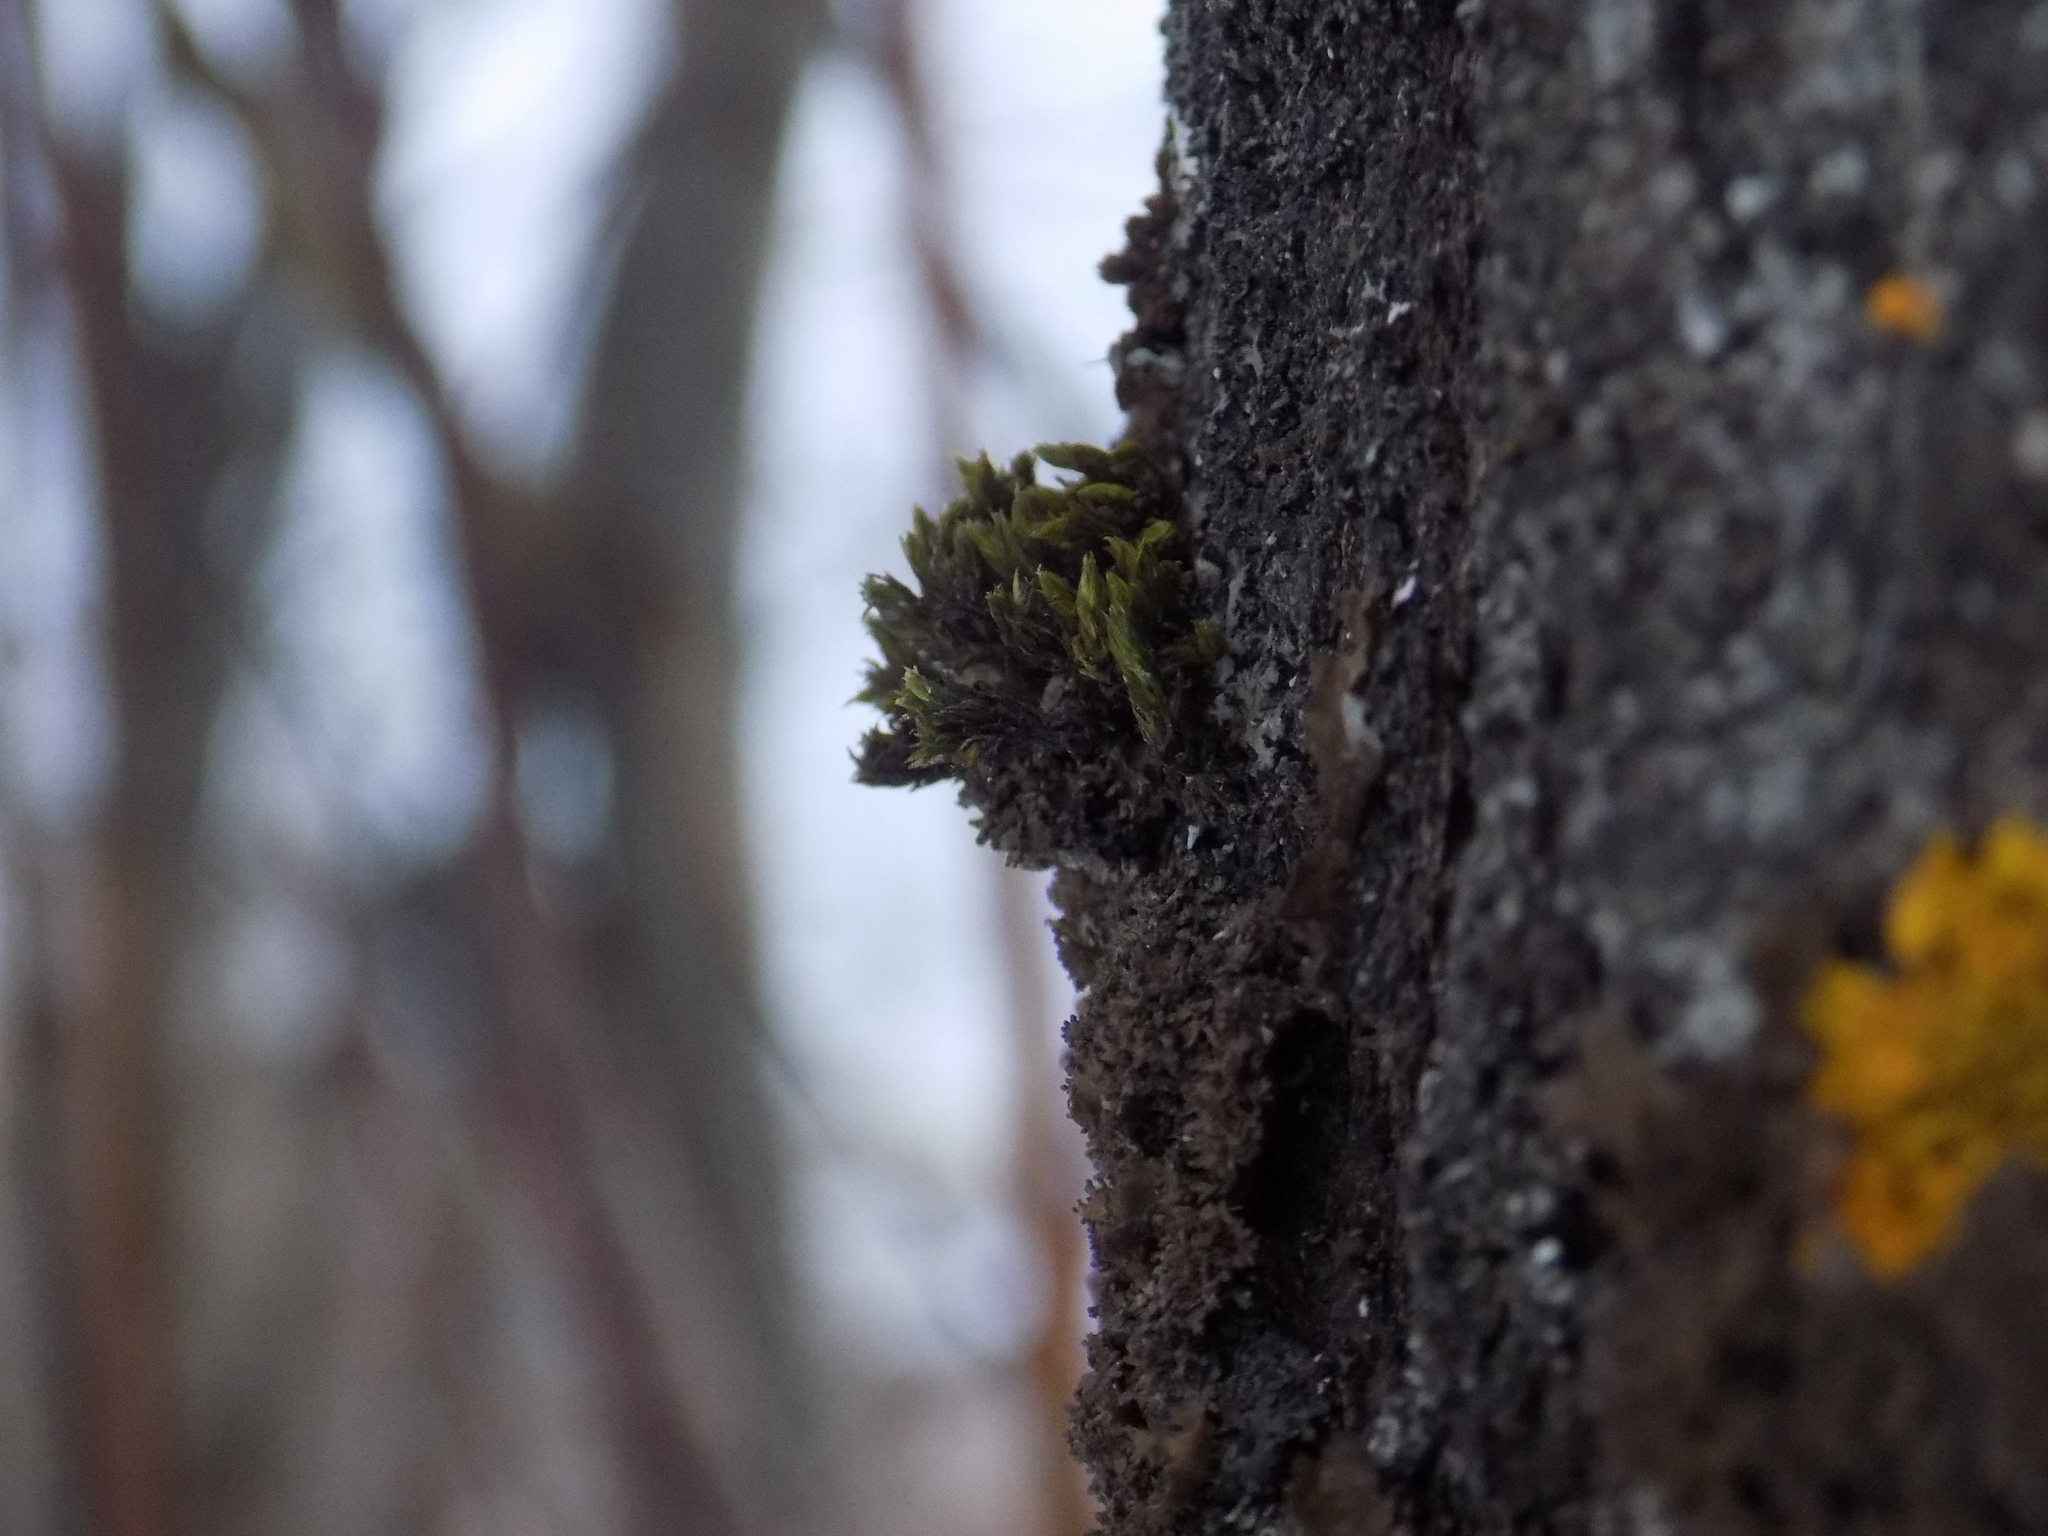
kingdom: Plantae
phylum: Bryophyta
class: Bryopsida
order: Orthotrichales
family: Orthotrichaceae
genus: Lewinskya
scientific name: Lewinskya
